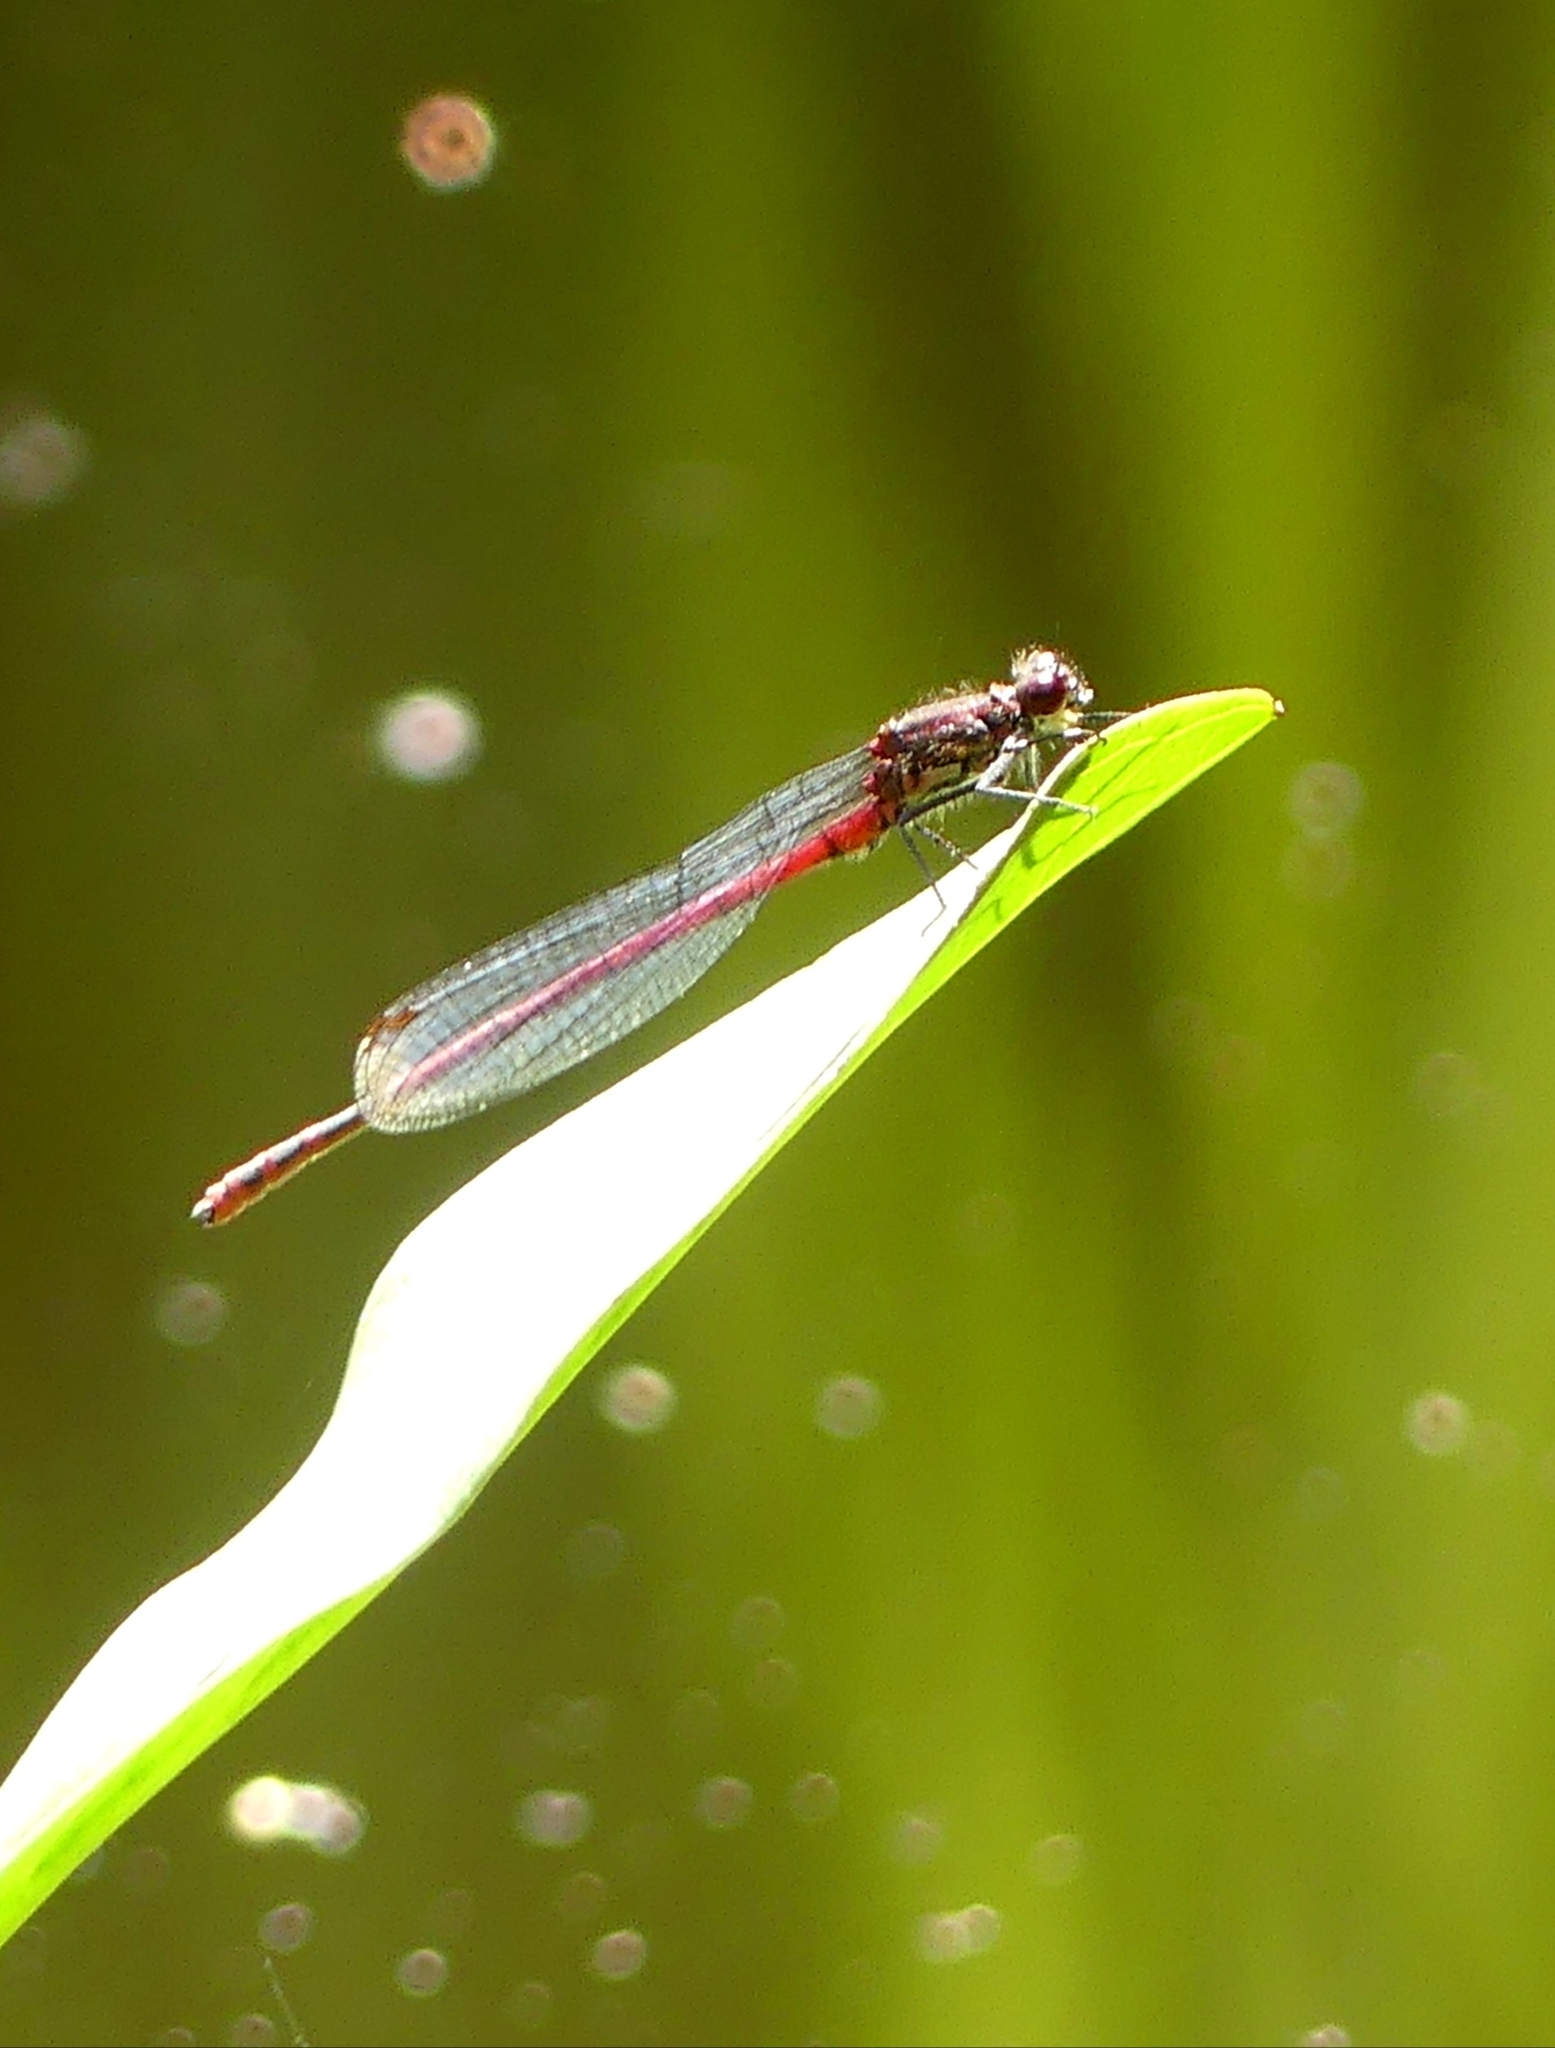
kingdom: Animalia
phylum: Arthropoda
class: Insecta
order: Odonata
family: Coenagrionidae
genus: Pyrrhosoma
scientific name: Pyrrhosoma nymphula
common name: Large red damsel
